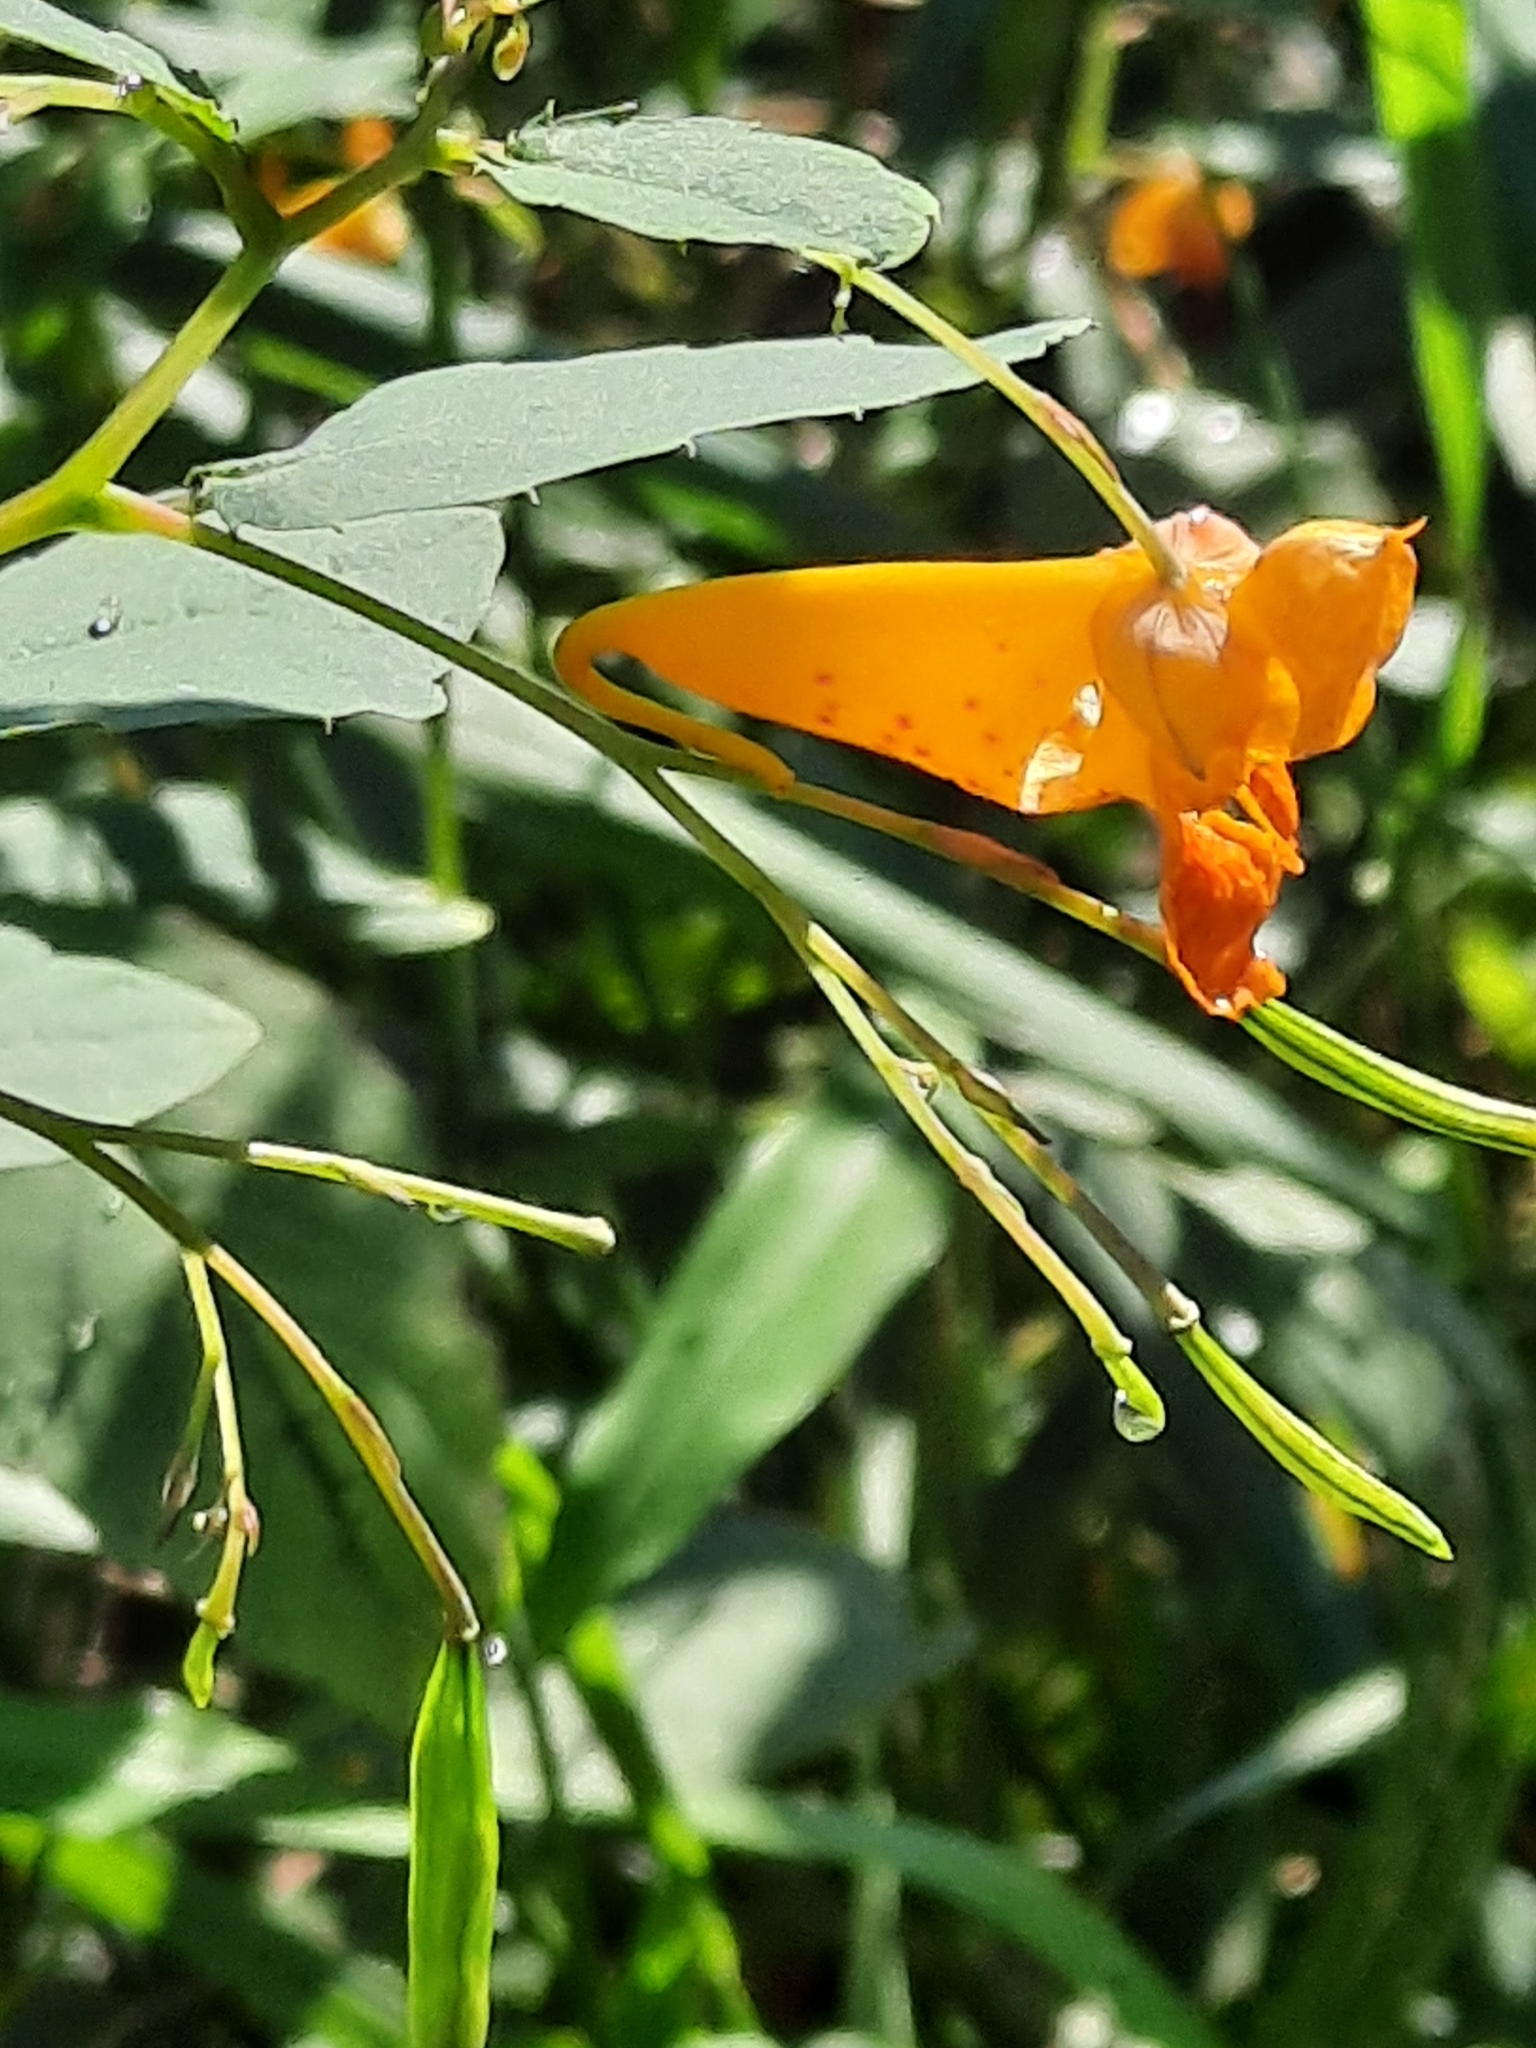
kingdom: Plantae
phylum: Tracheophyta
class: Magnoliopsida
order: Ericales
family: Balsaminaceae
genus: Impatiens
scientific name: Impatiens capensis
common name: Orange balsam
